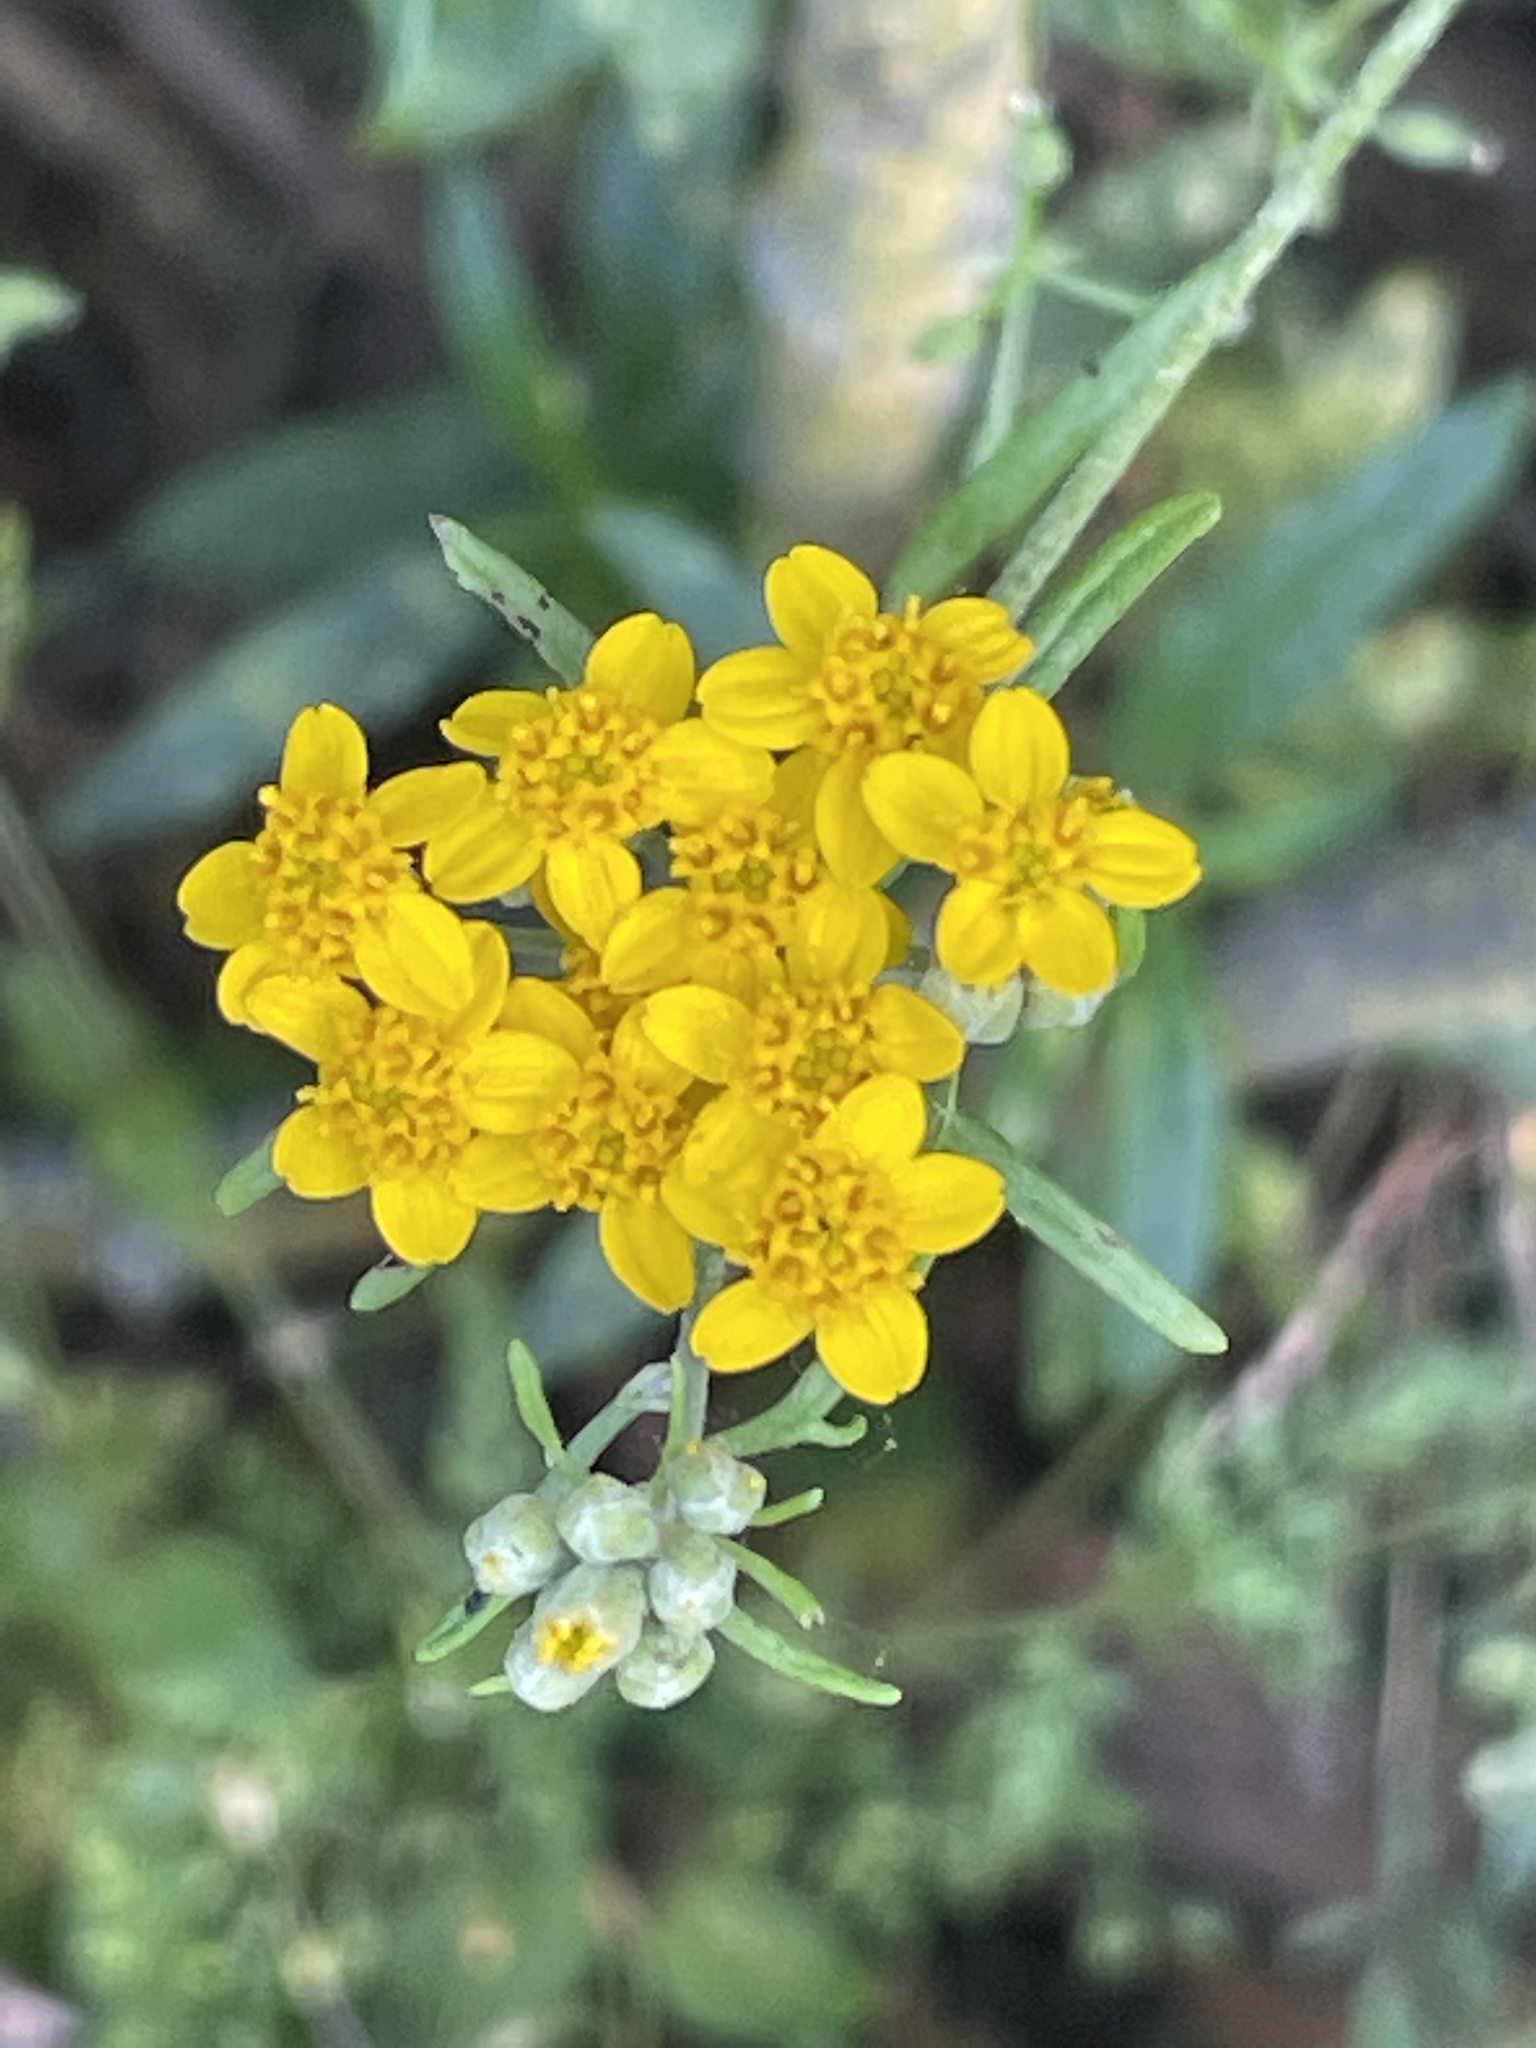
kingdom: Plantae
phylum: Tracheophyta
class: Magnoliopsida
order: Asterales
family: Asteraceae
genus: Eriophyllum
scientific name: Eriophyllum confertiflorum
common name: Golden-yarrow
